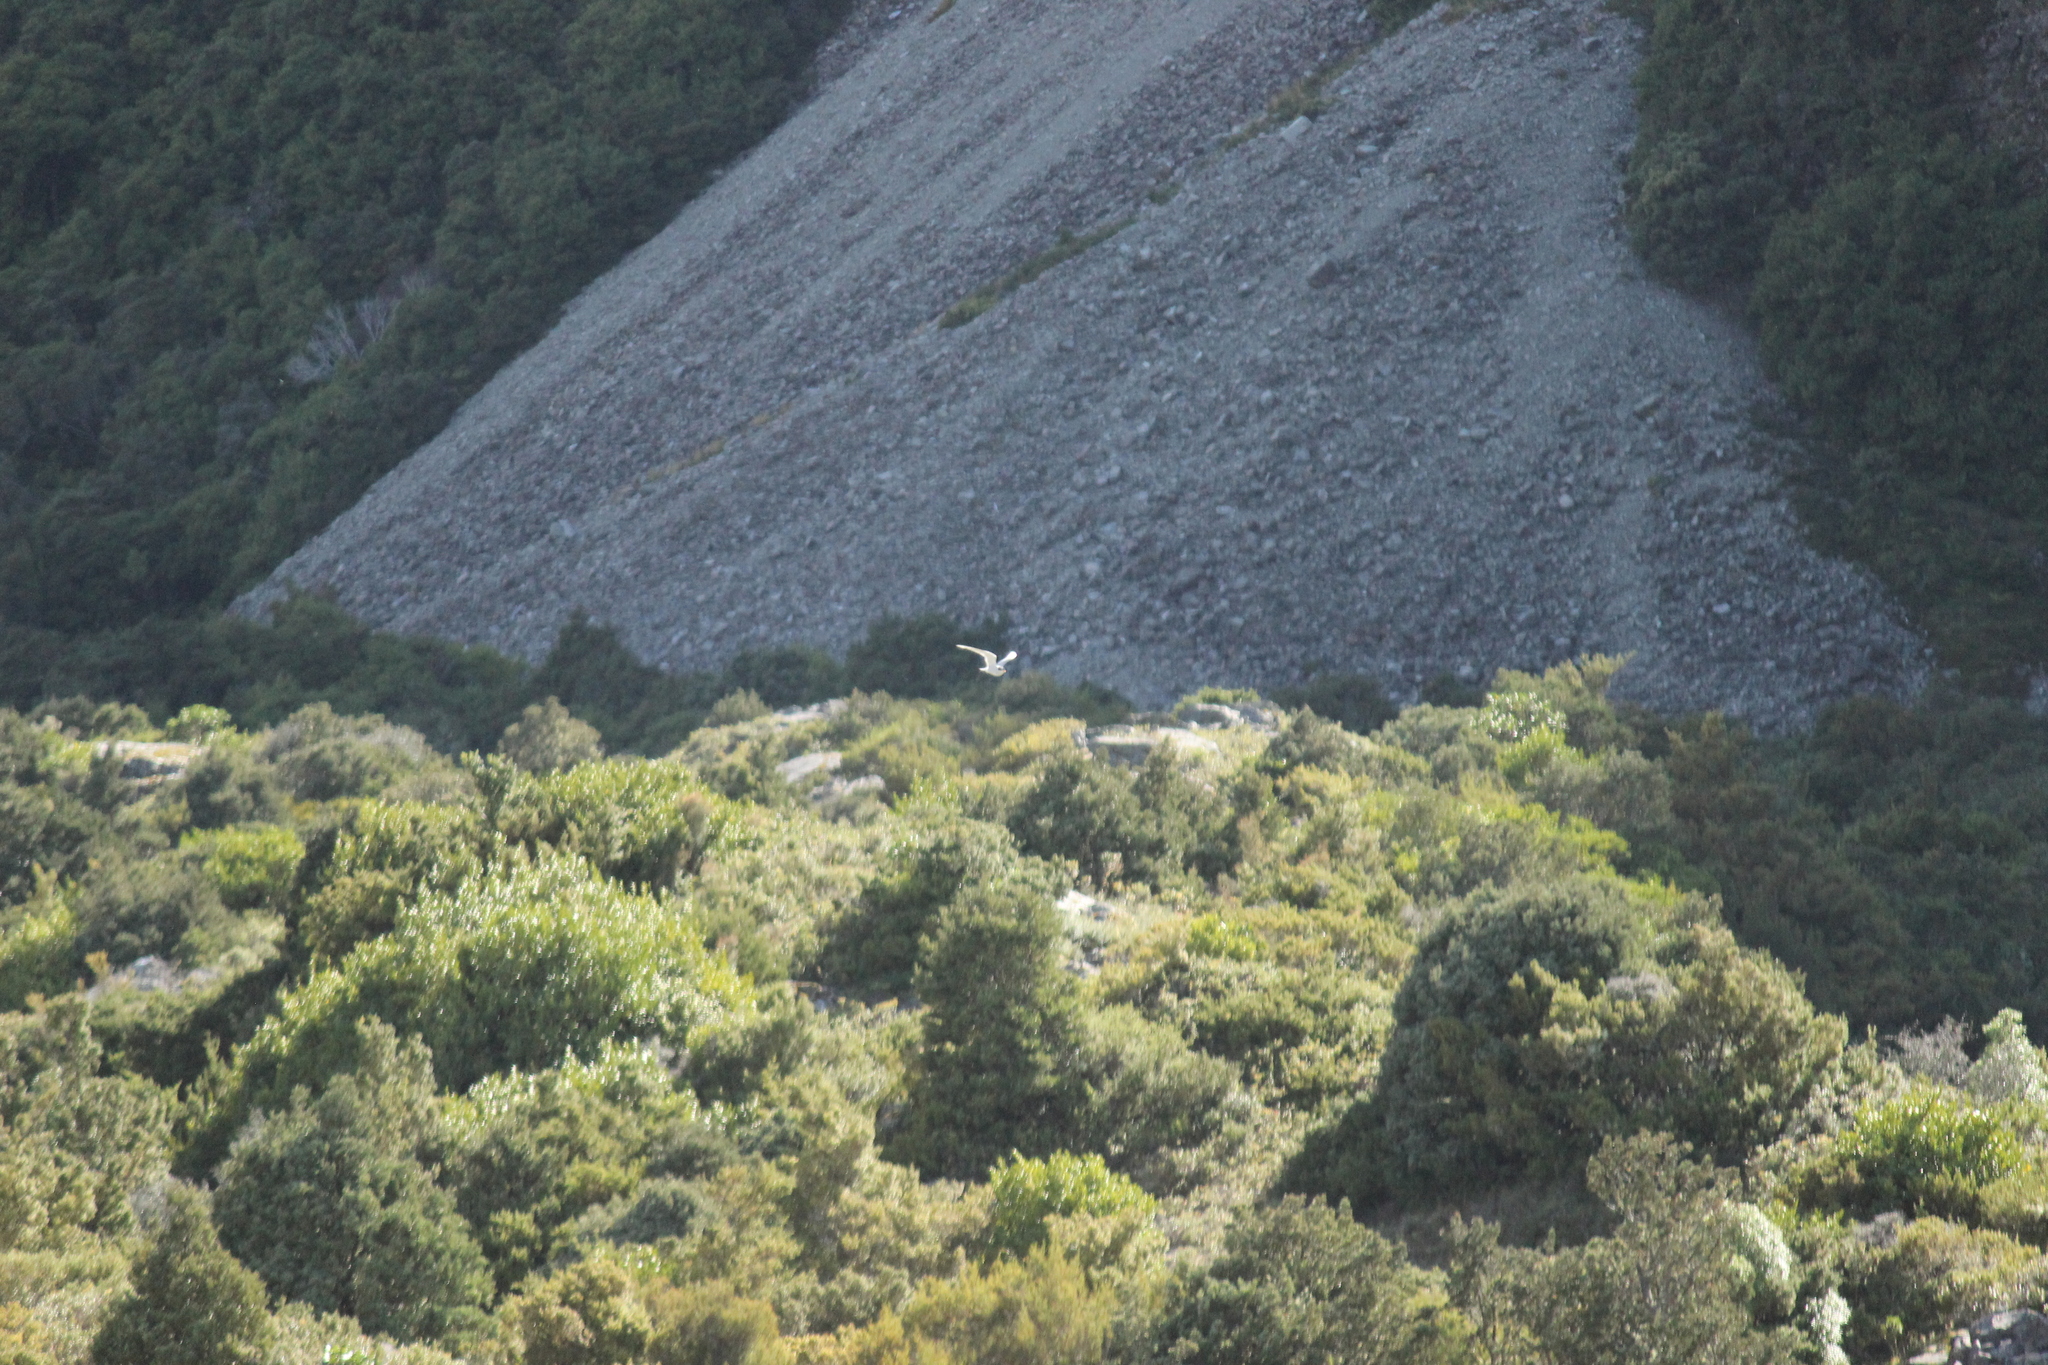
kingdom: Animalia
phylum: Chordata
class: Aves
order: Charadriiformes
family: Laridae
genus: Chlidonias
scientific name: Chlidonias albostriatus
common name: Black-fronted tern
